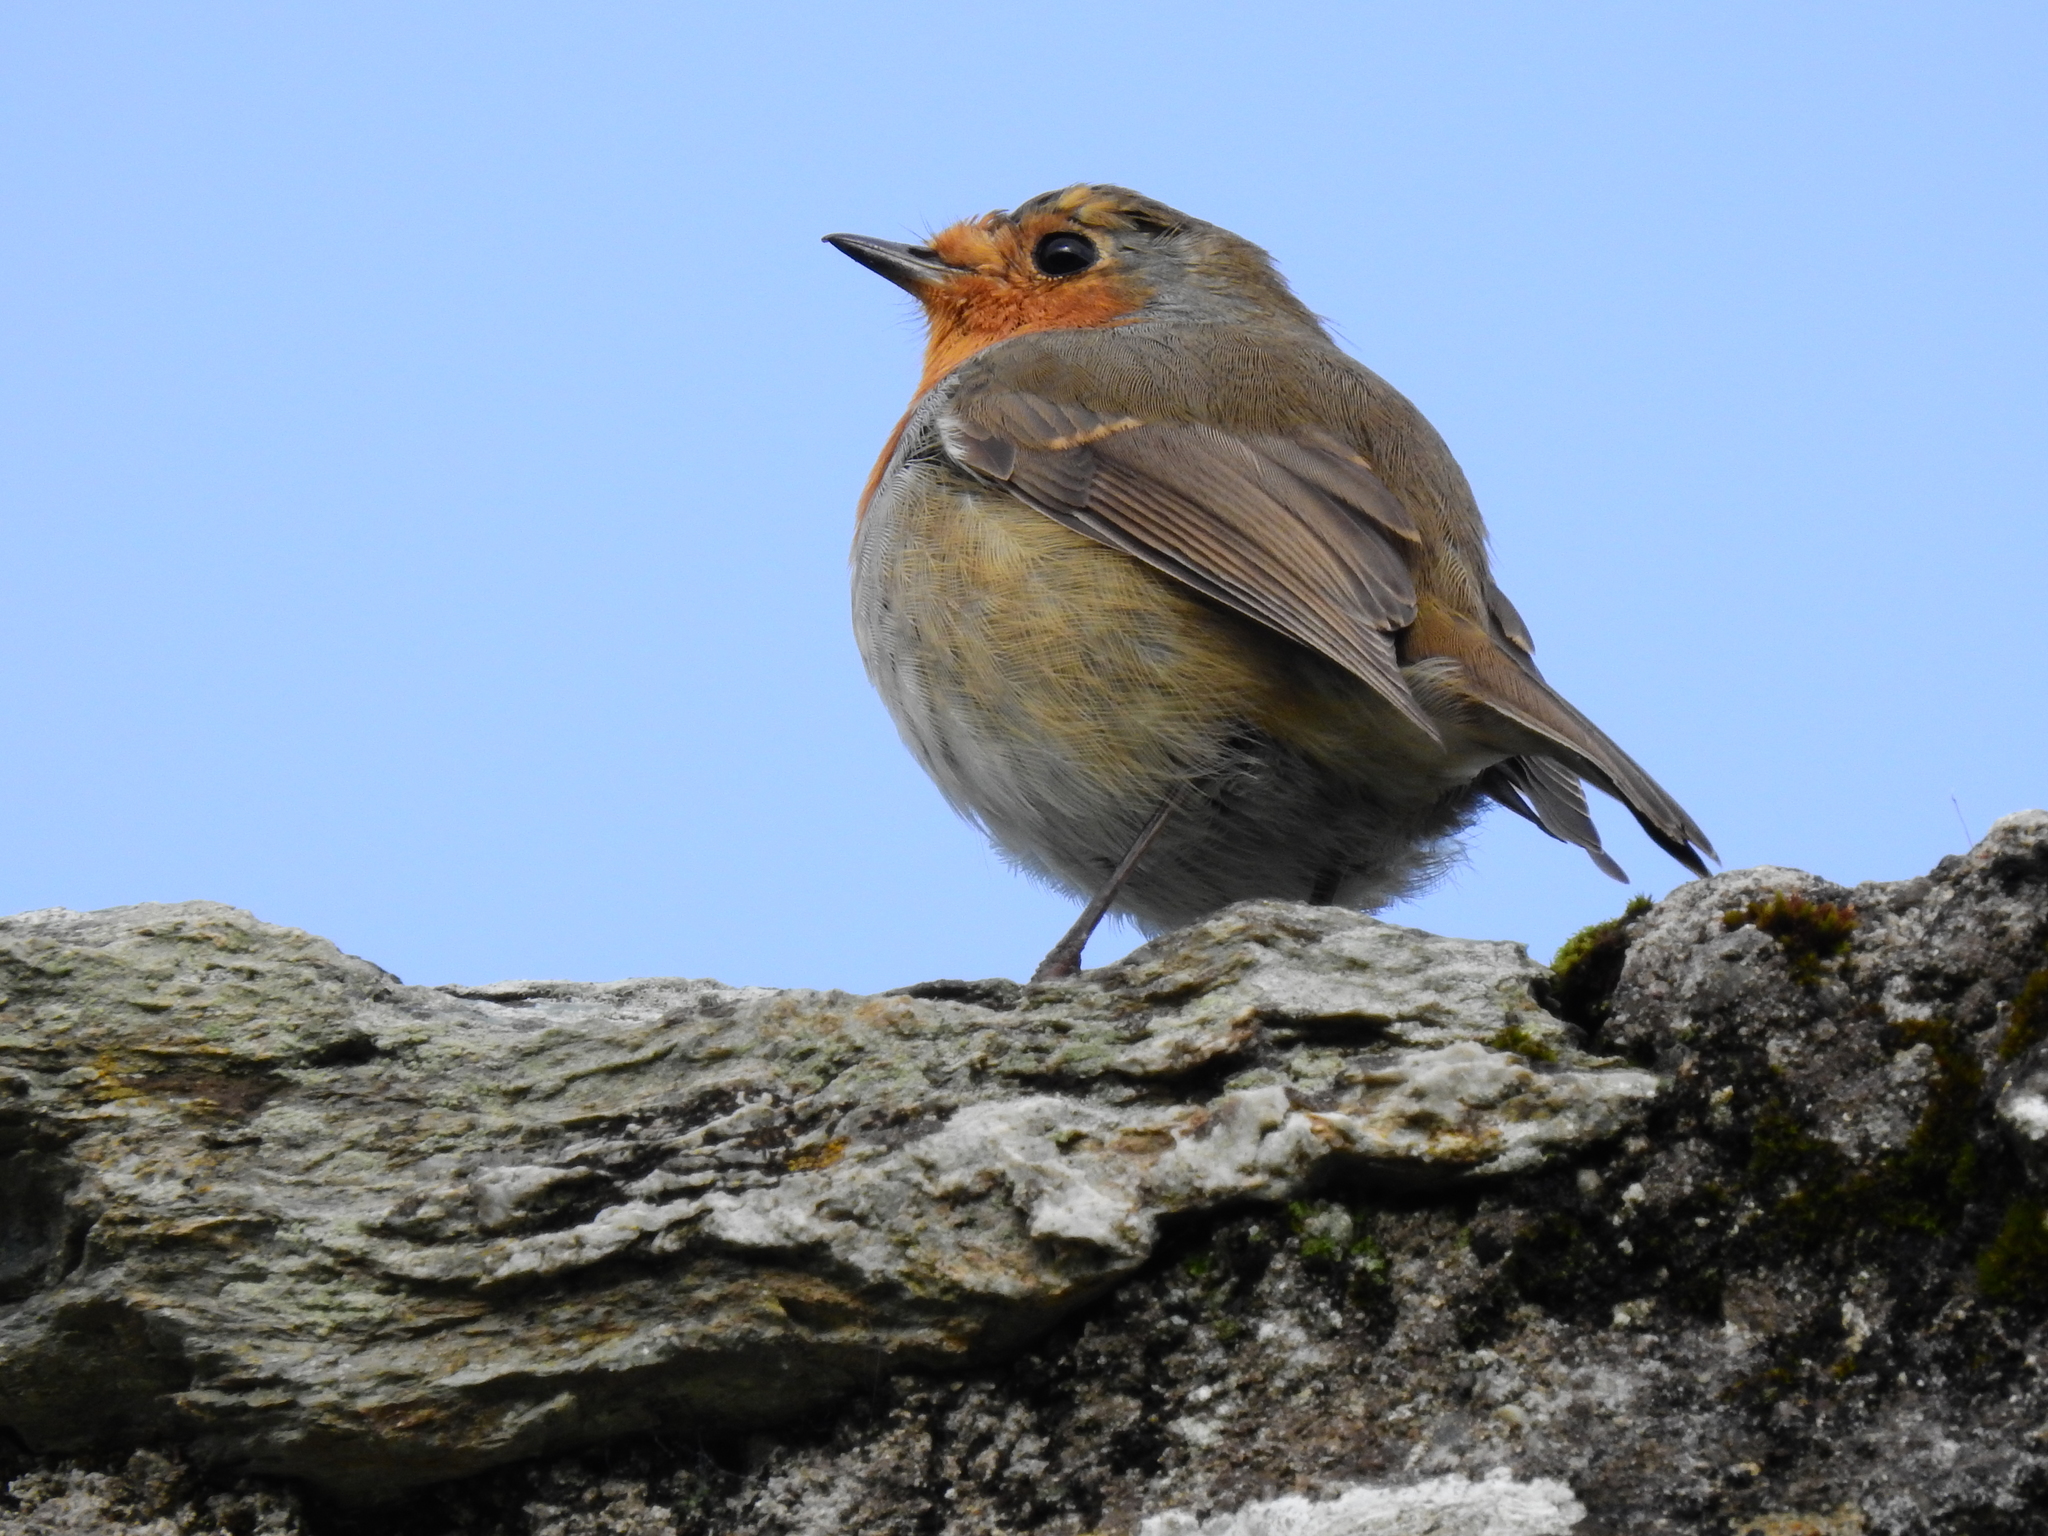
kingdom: Animalia
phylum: Chordata
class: Aves
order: Passeriformes
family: Muscicapidae
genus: Erithacus
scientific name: Erithacus rubecula
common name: European robin
